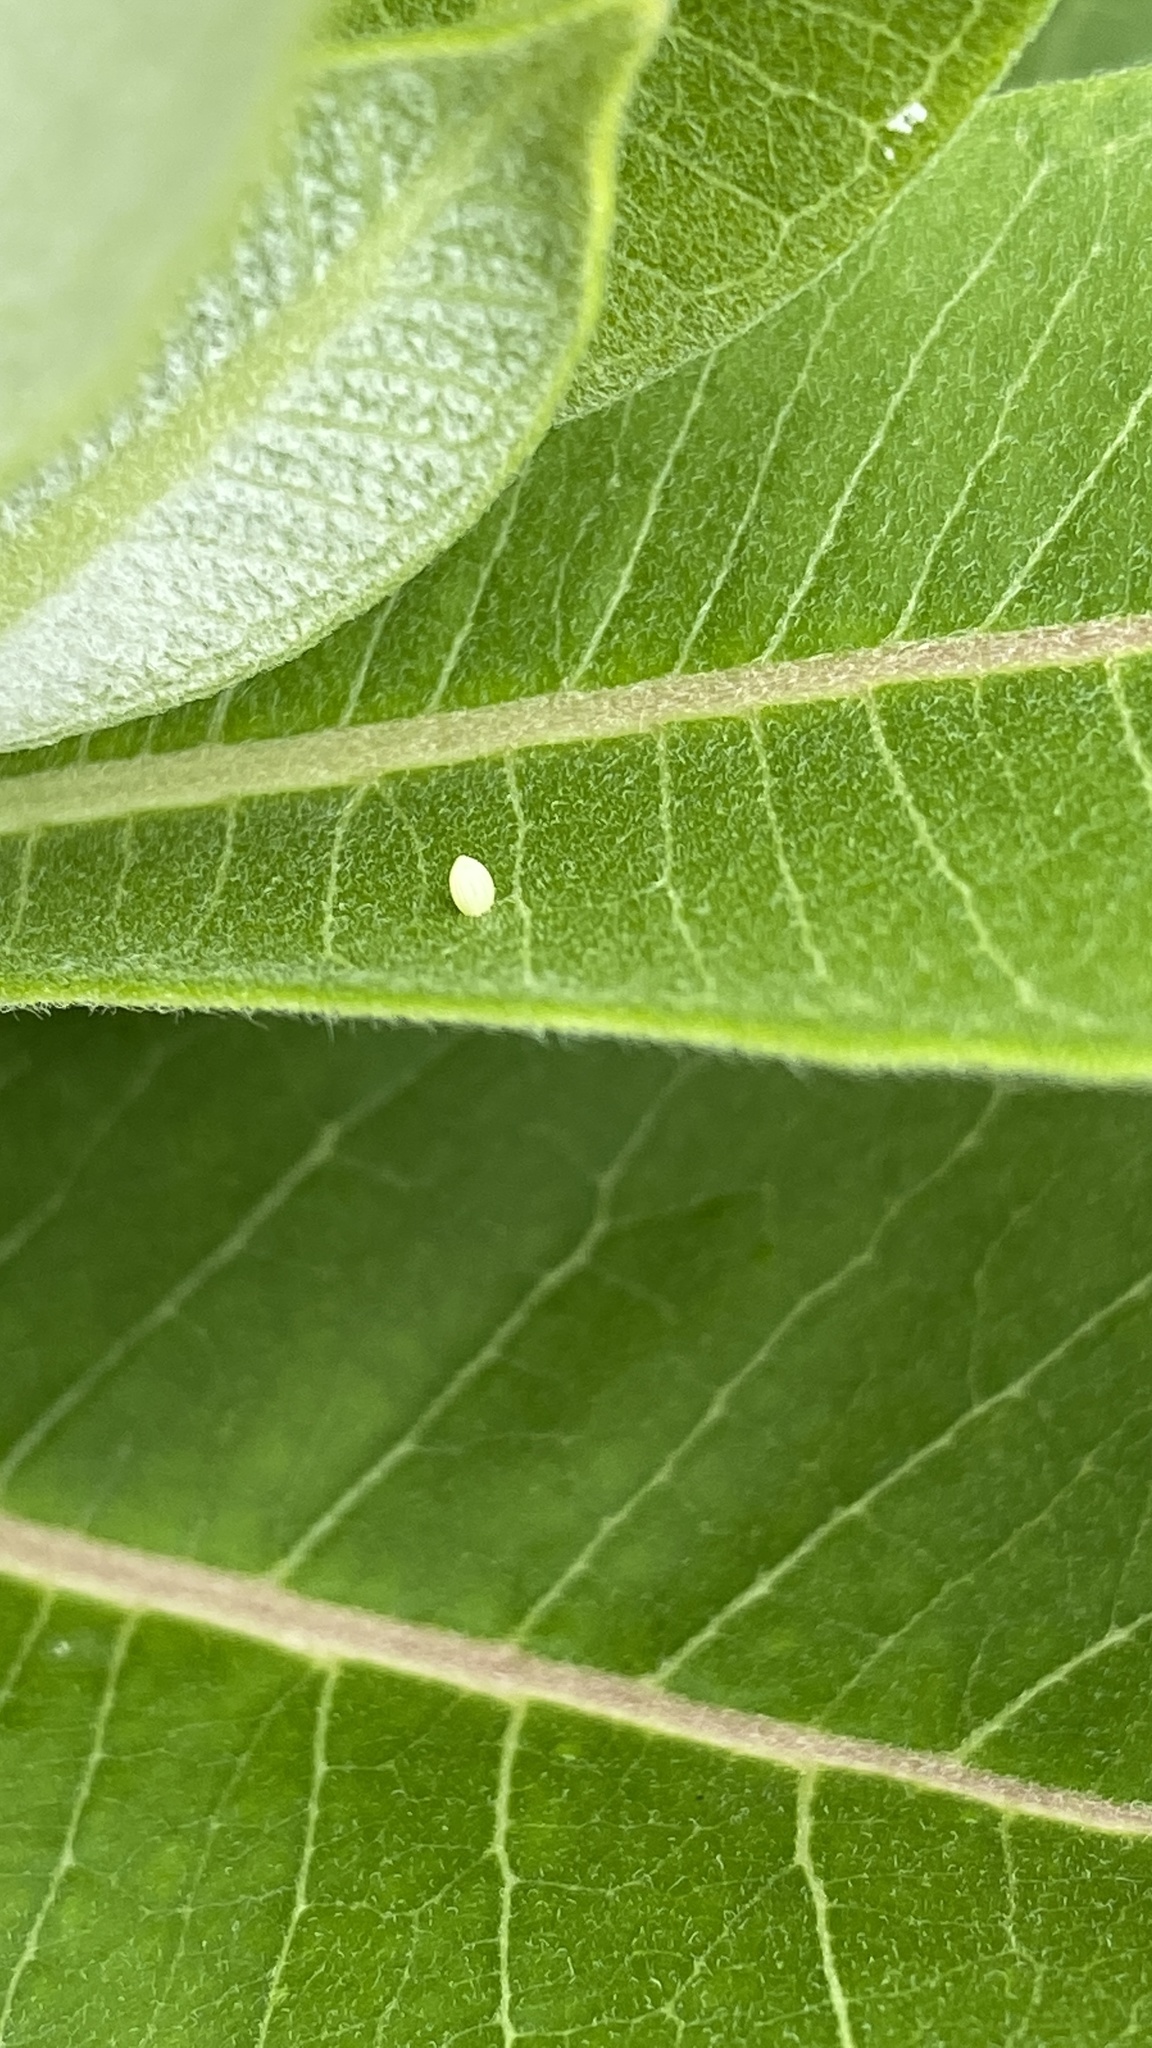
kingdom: Animalia
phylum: Arthropoda
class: Insecta
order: Lepidoptera
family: Nymphalidae
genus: Danaus
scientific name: Danaus plexippus
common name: Monarch
